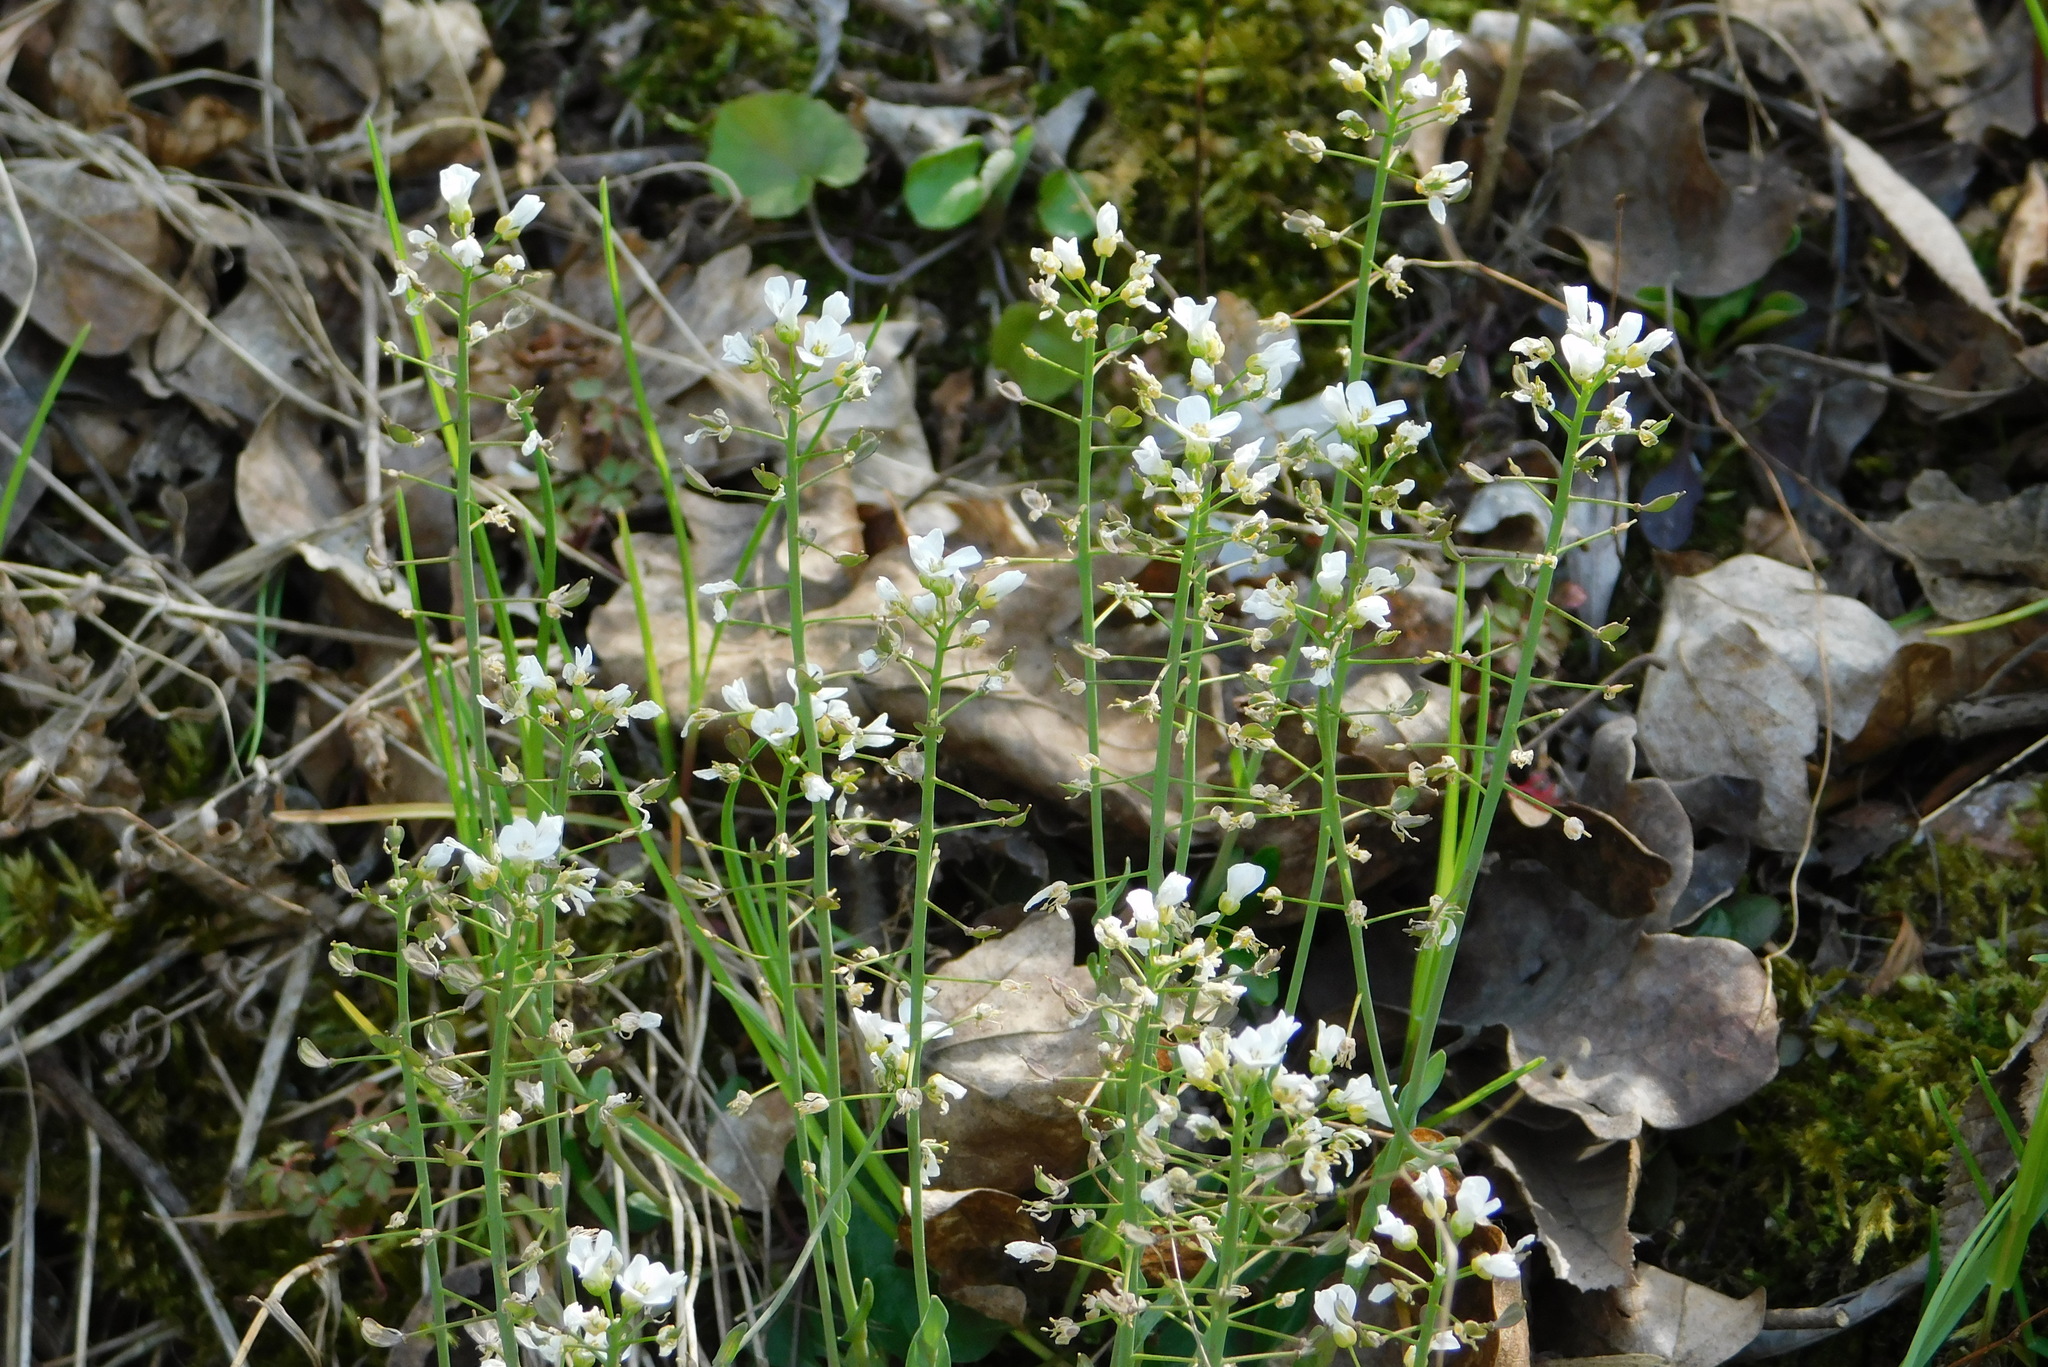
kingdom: Plantae
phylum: Tracheophyta
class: Magnoliopsida
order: Brassicales
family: Brassicaceae
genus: Noccaea
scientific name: Noccaea montana
